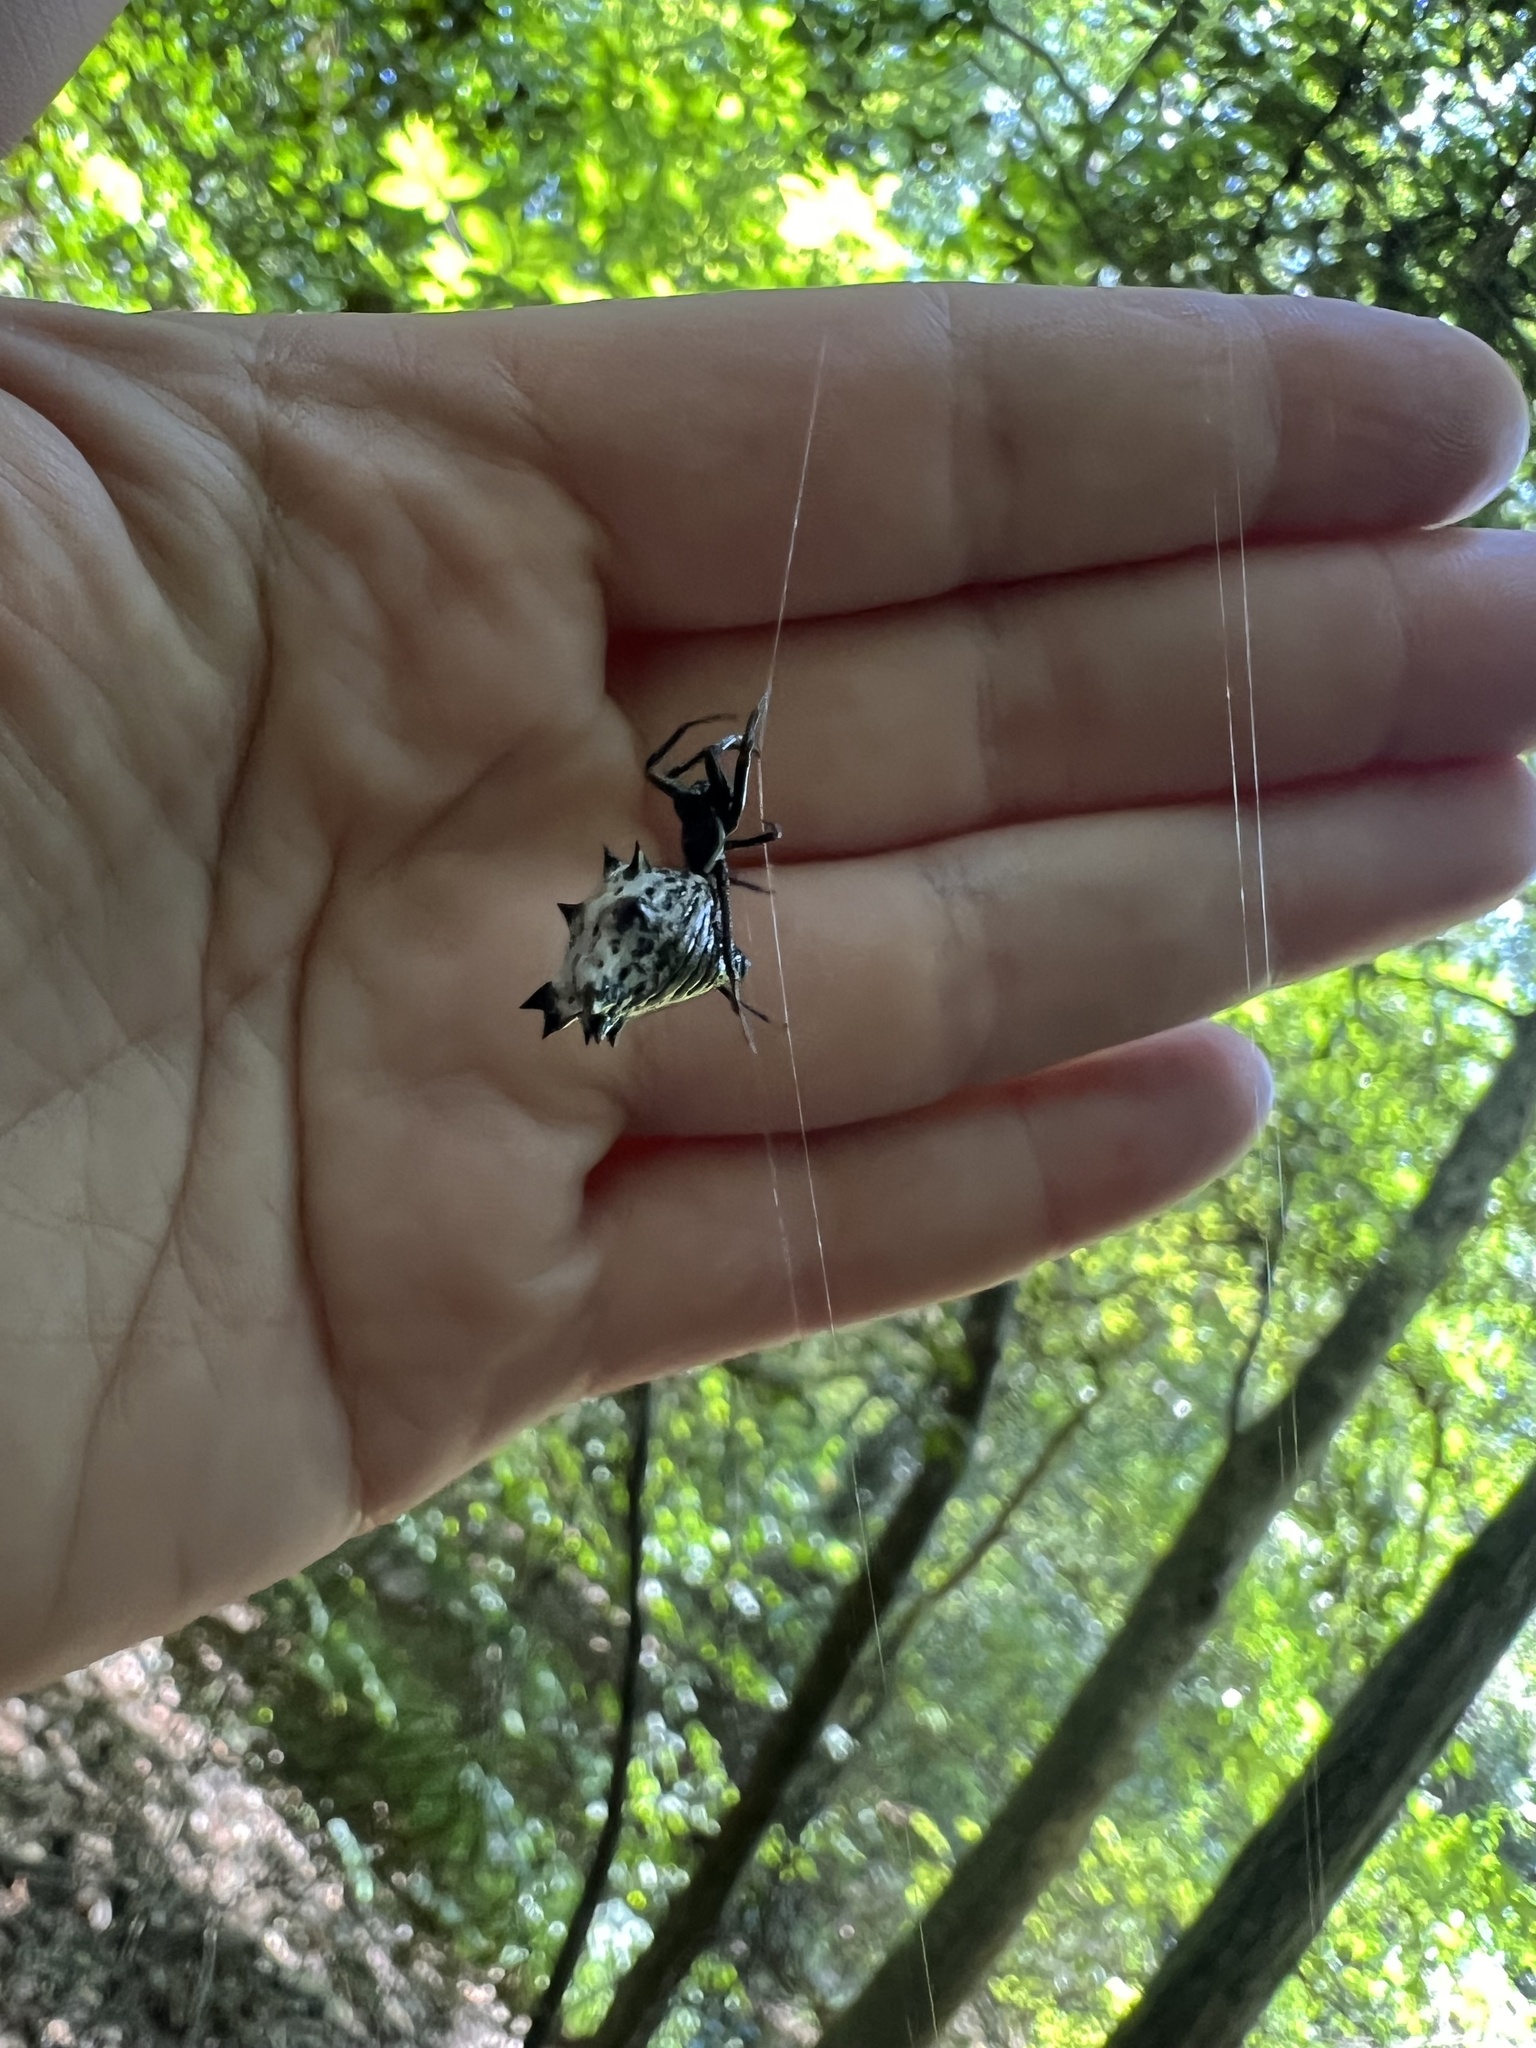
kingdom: Animalia
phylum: Arthropoda
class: Arachnida
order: Araneae
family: Araneidae
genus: Micrathena
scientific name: Micrathena gracilis
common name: Orb weavers
